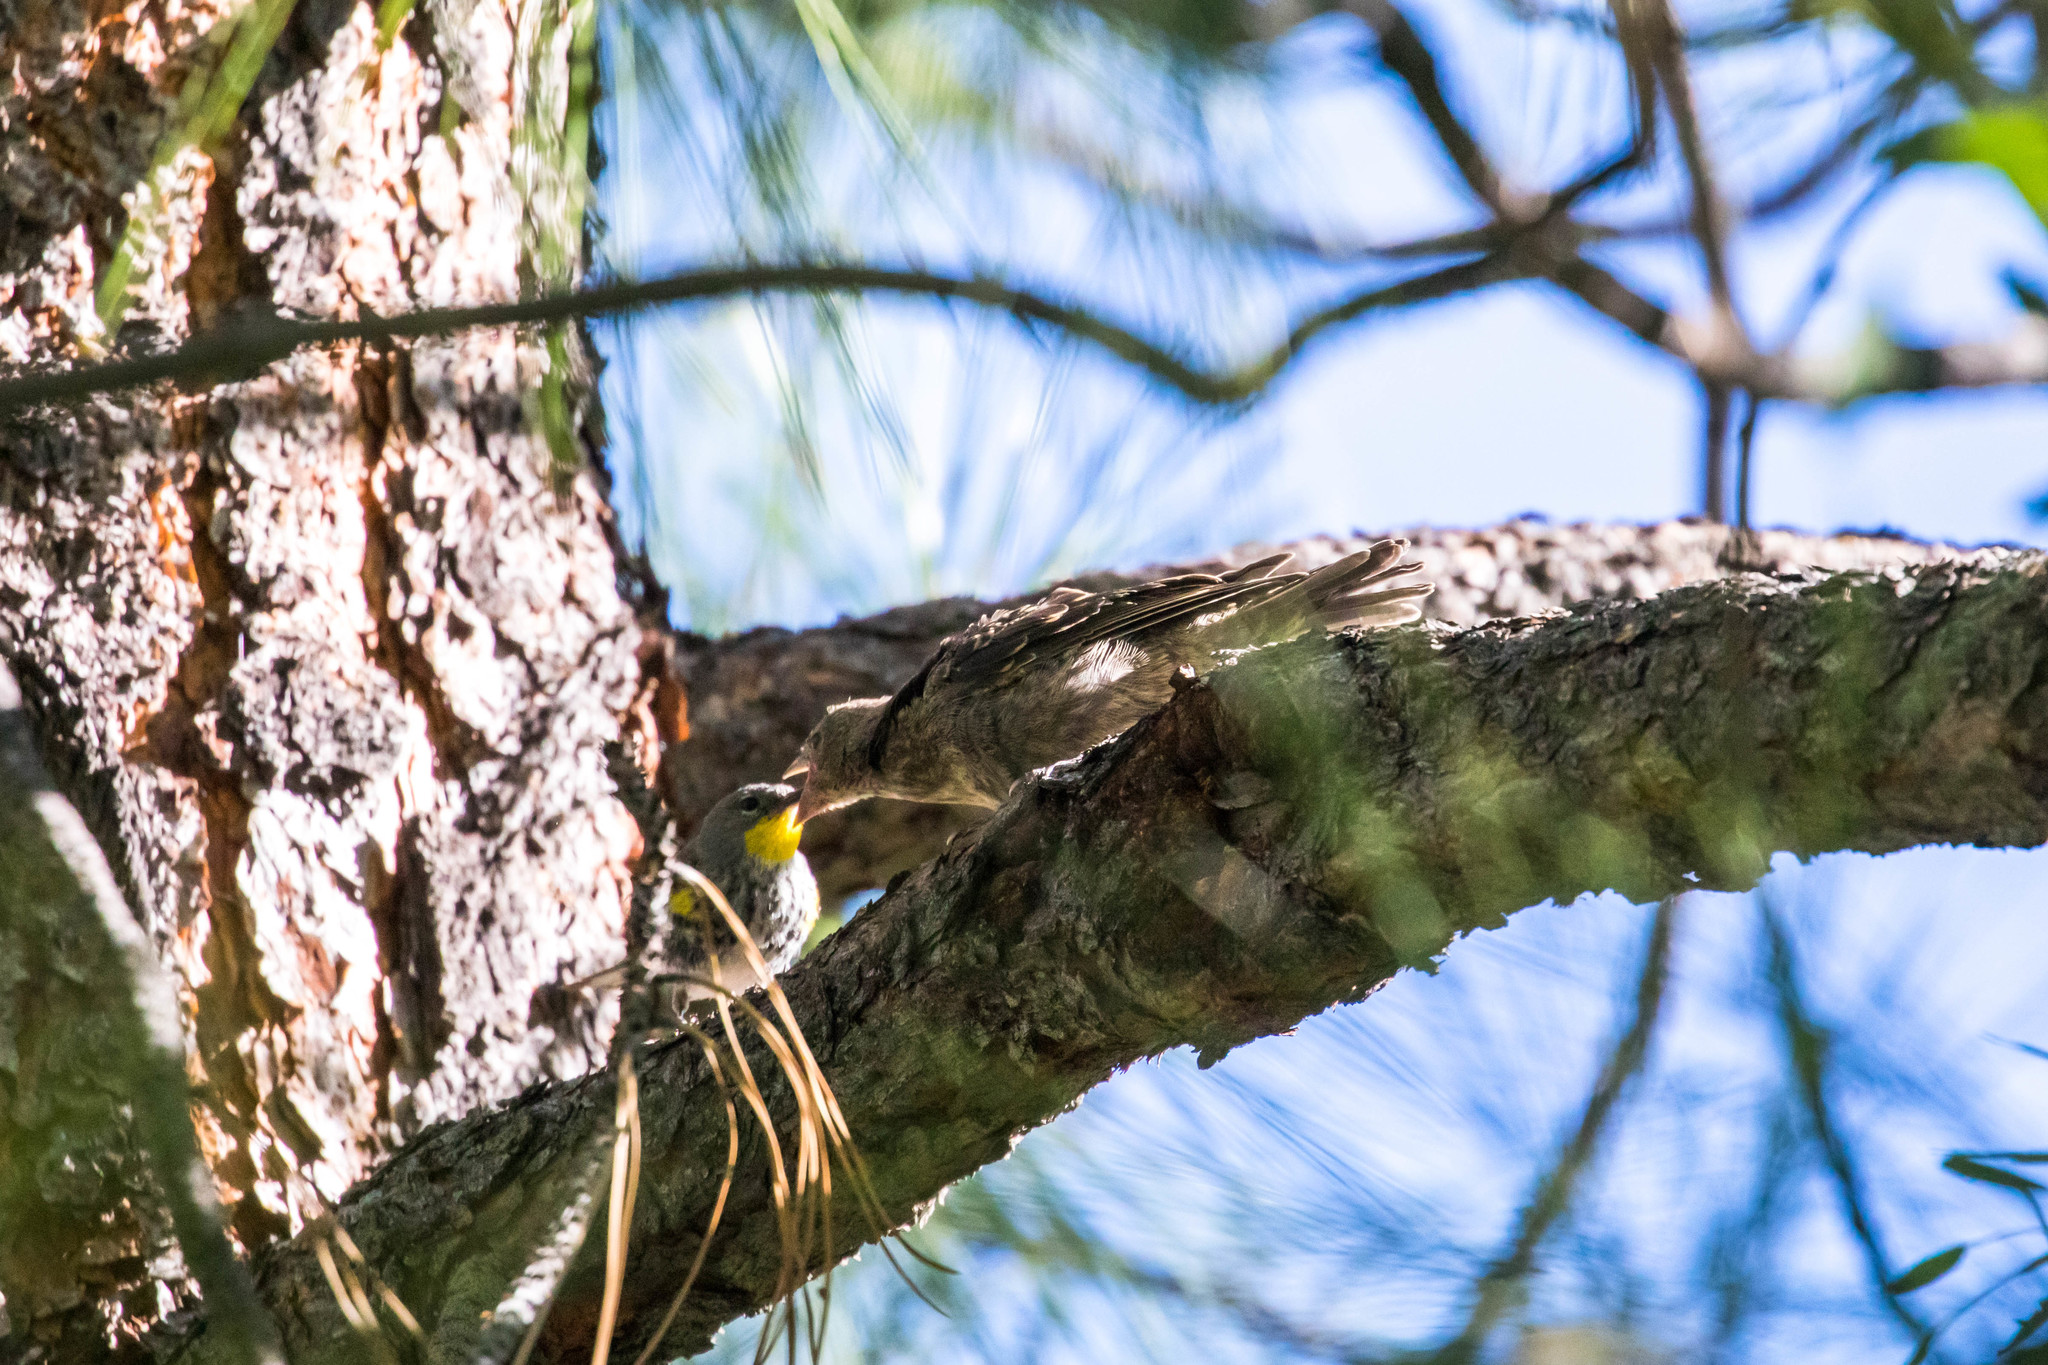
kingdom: Animalia
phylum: Chordata
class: Aves
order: Passeriformes
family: Parulidae
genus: Setophaga
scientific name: Setophaga auduboni
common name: Audubon's warbler
